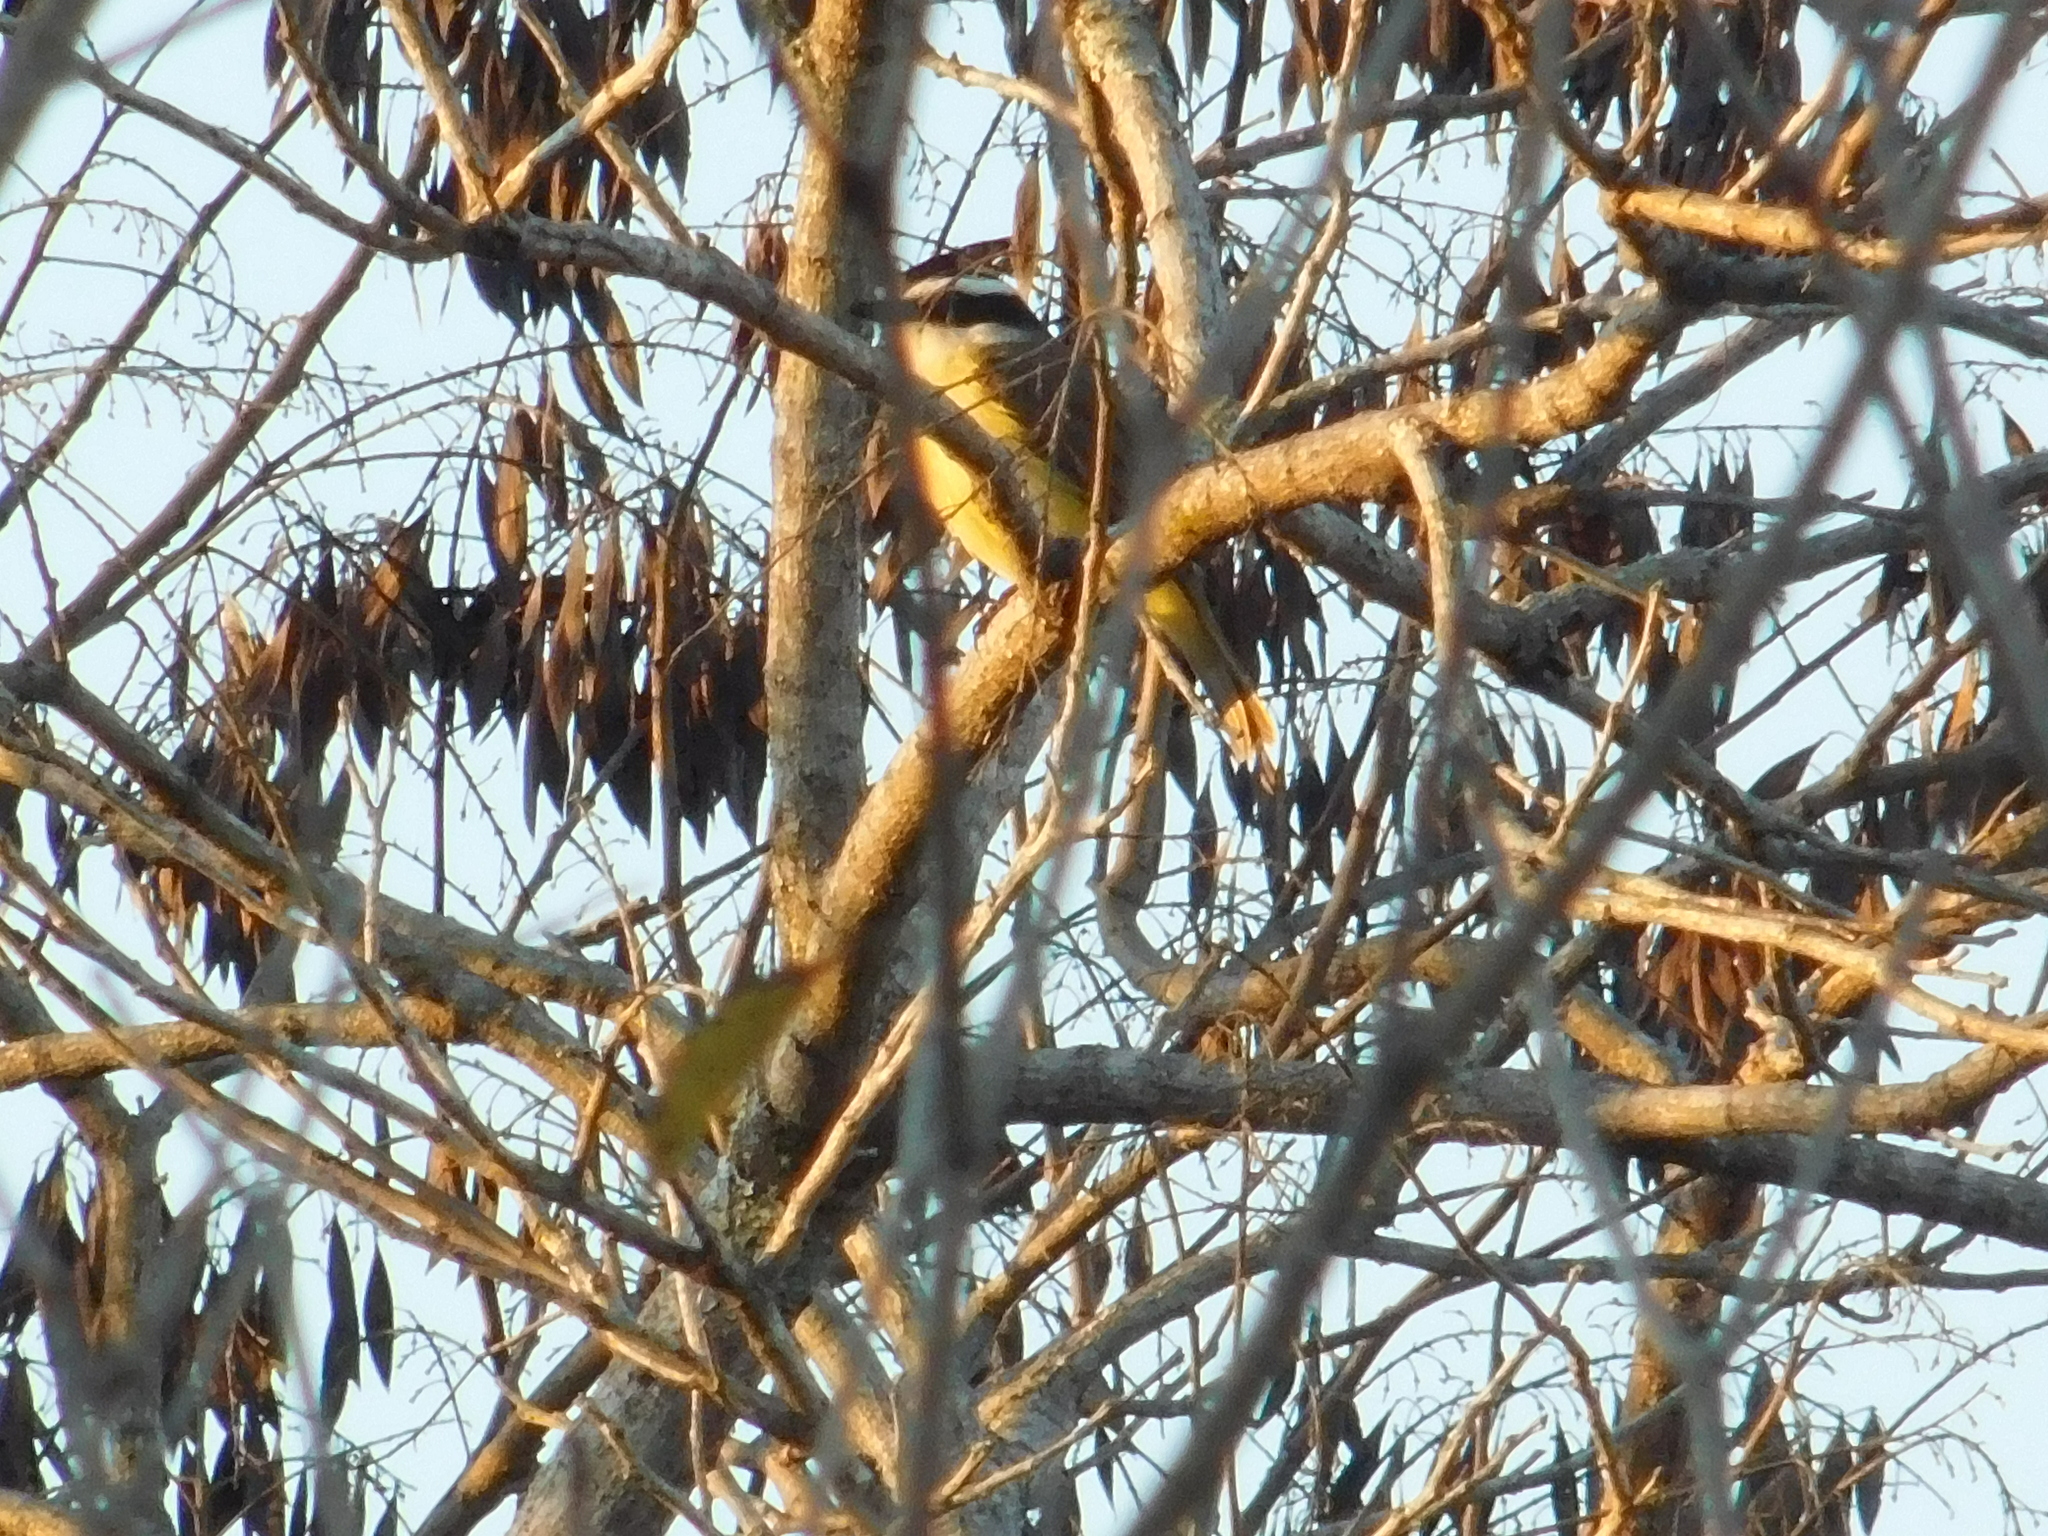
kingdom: Animalia
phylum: Chordata
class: Aves
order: Passeriformes
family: Tyrannidae
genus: Pitangus
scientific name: Pitangus sulphuratus
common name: Great kiskadee
